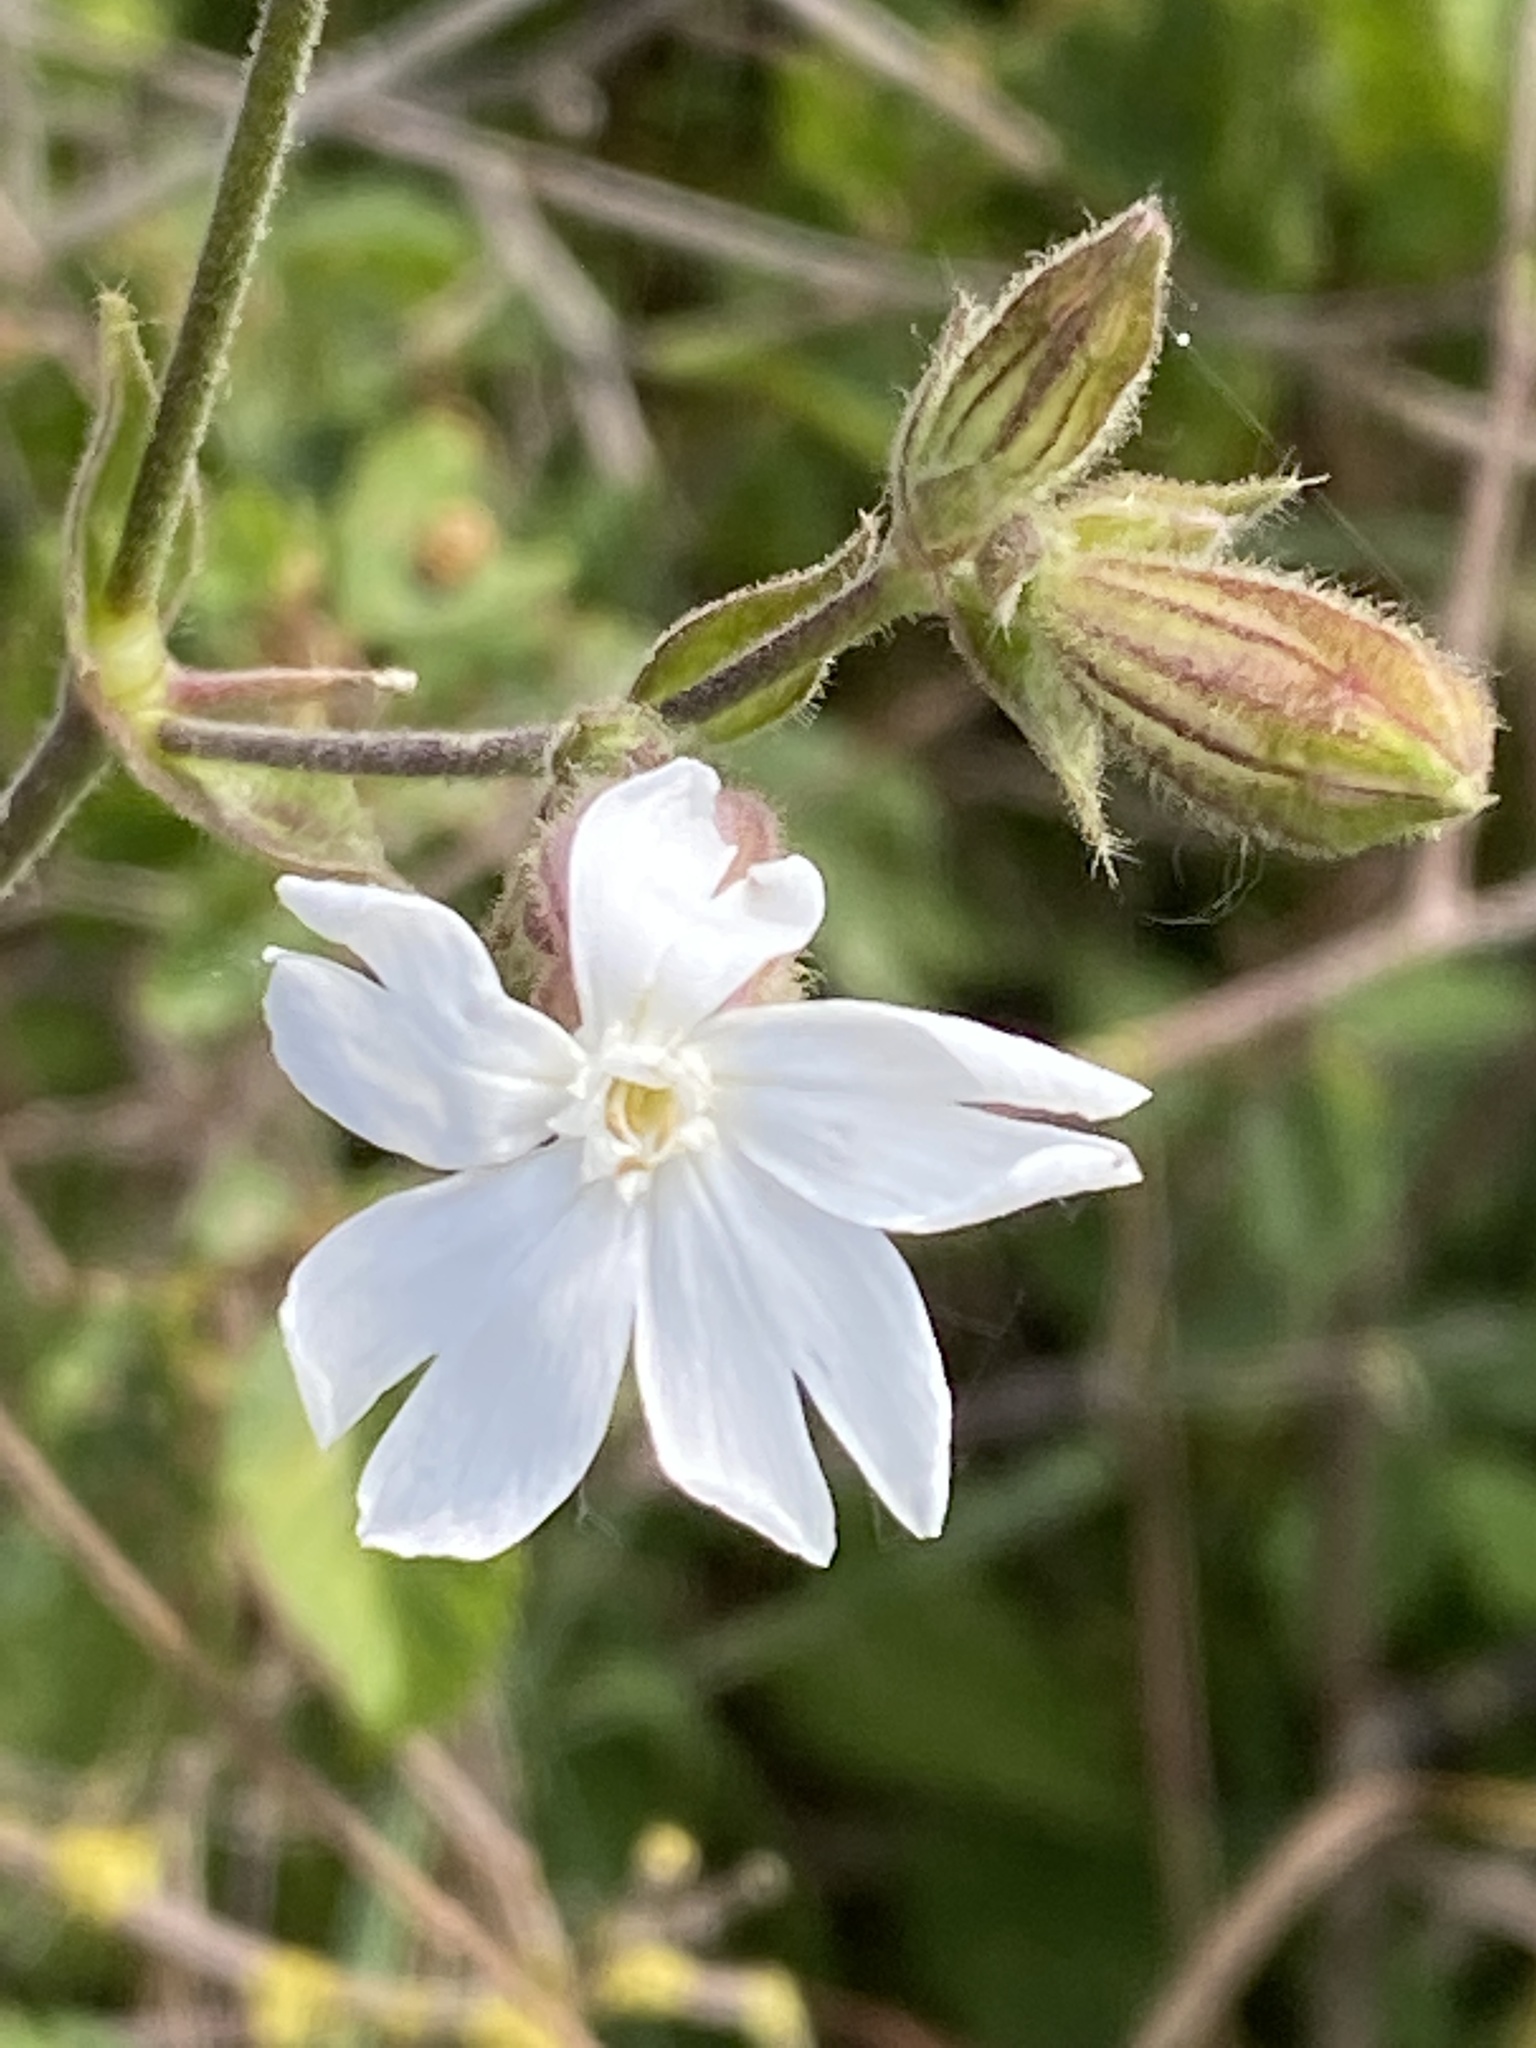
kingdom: Plantae
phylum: Tracheophyta
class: Magnoliopsida
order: Caryophyllales
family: Caryophyllaceae
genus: Silene
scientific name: Silene latifolia
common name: White campion
